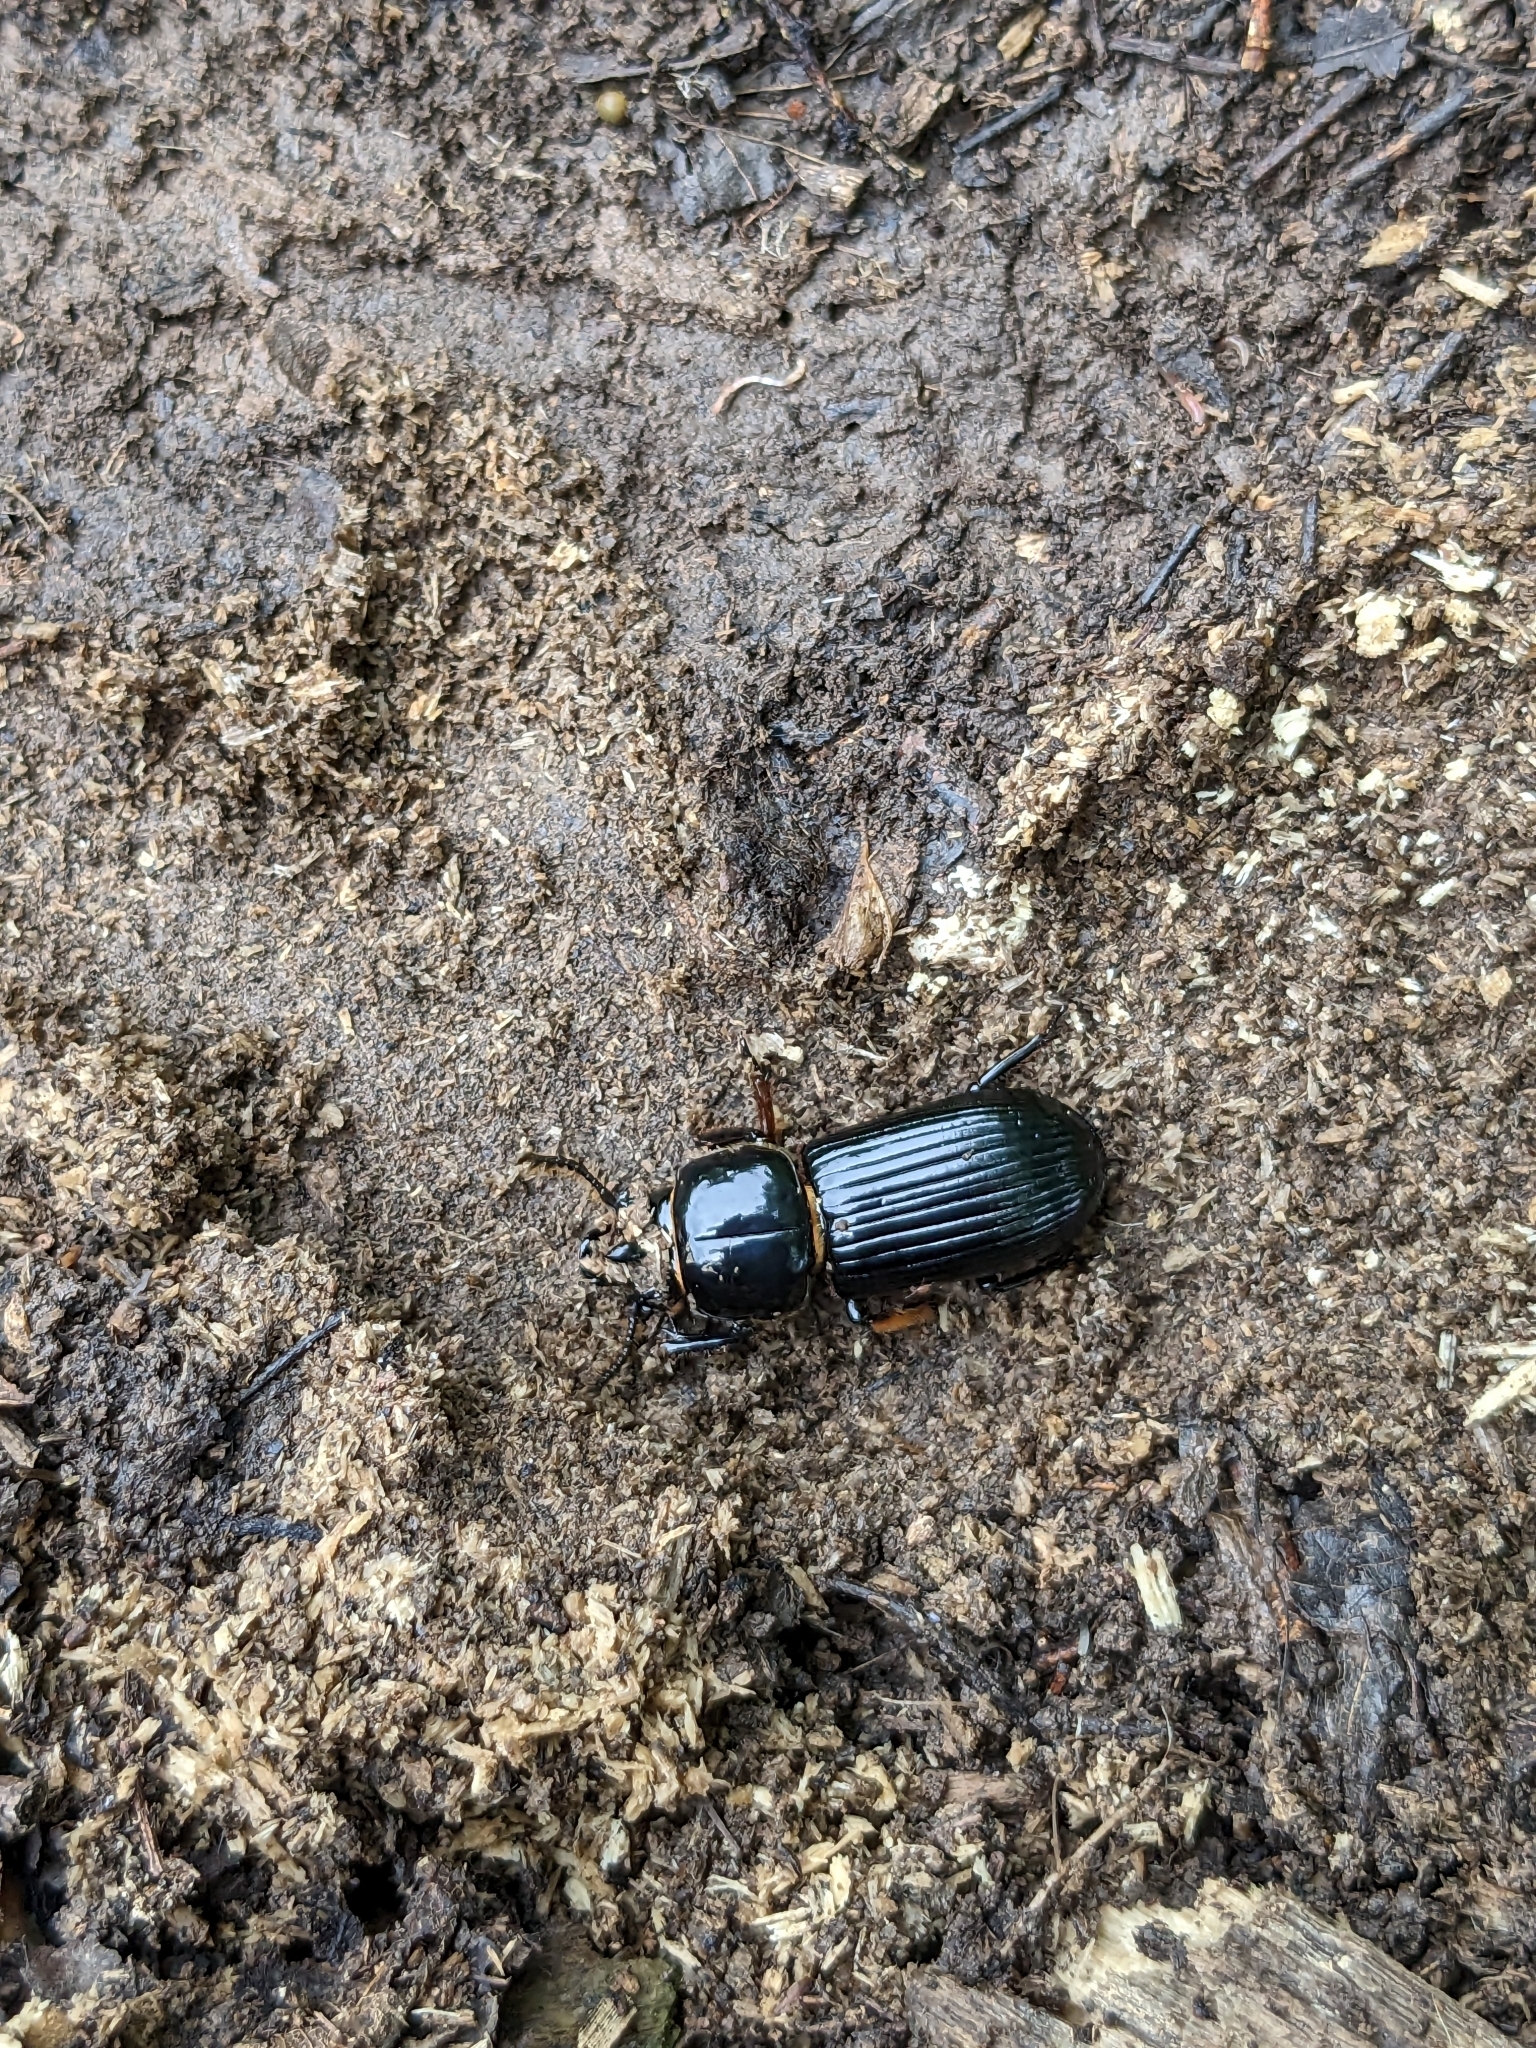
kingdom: Animalia
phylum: Arthropoda
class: Insecta
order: Coleoptera
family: Passalidae
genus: Odontotaenius
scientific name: Odontotaenius disjunctus
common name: Patent leather beetle
